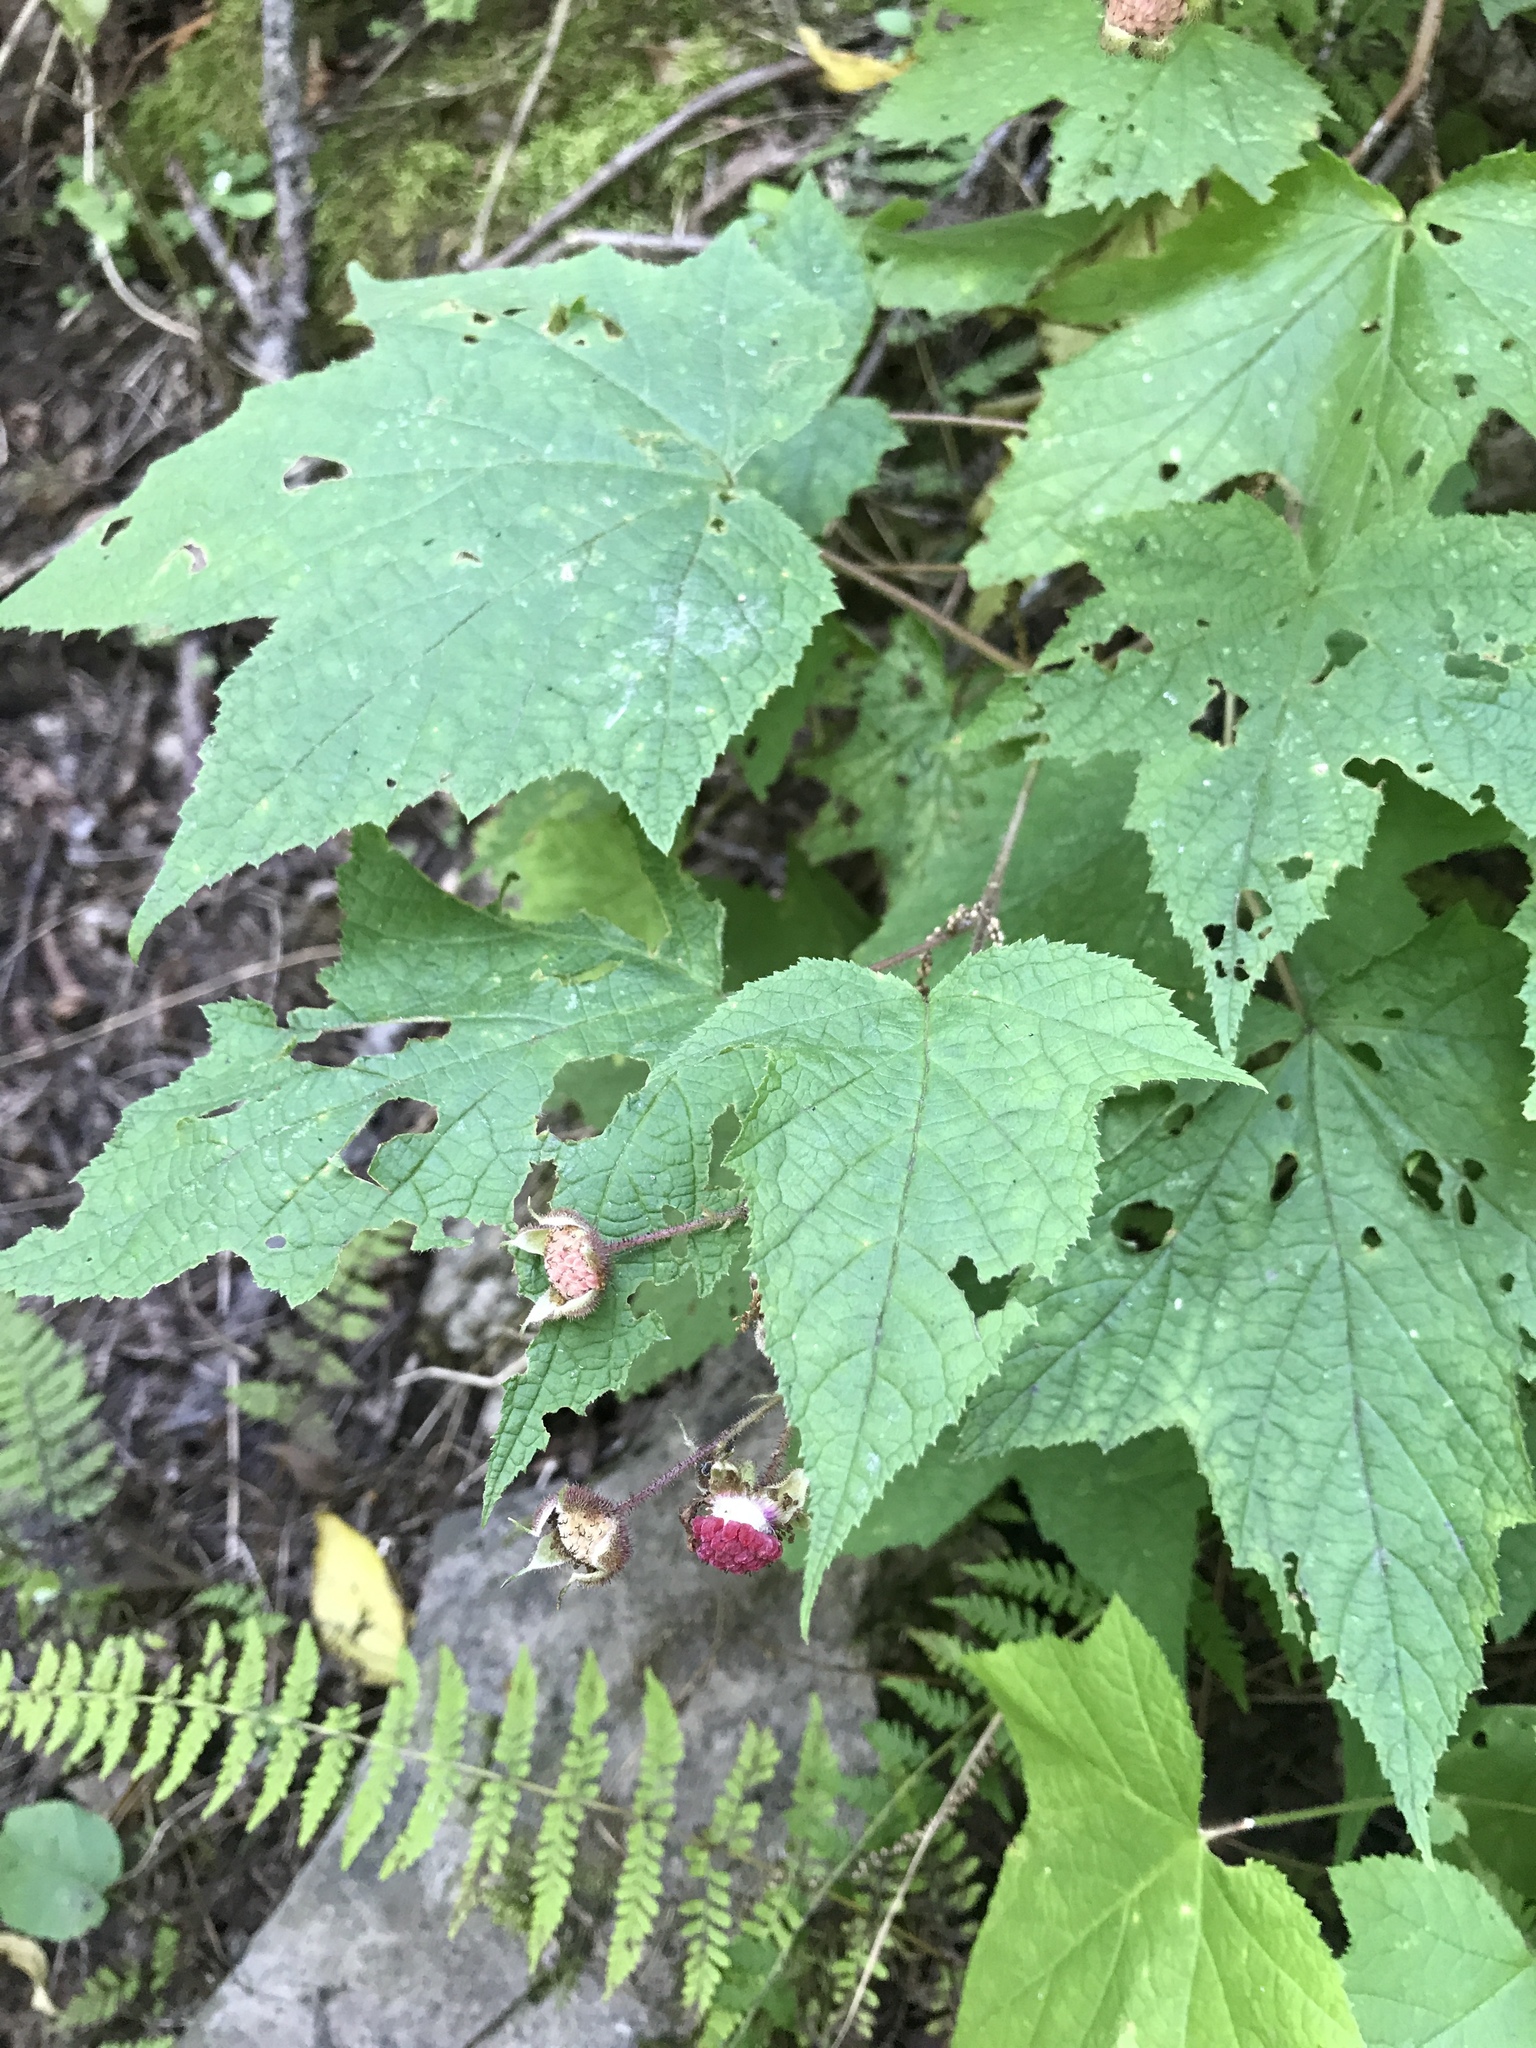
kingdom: Plantae
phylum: Tracheophyta
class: Magnoliopsida
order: Rosales
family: Rosaceae
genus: Rubus
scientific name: Rubus odoratus
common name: Purple-flowered raspberry
